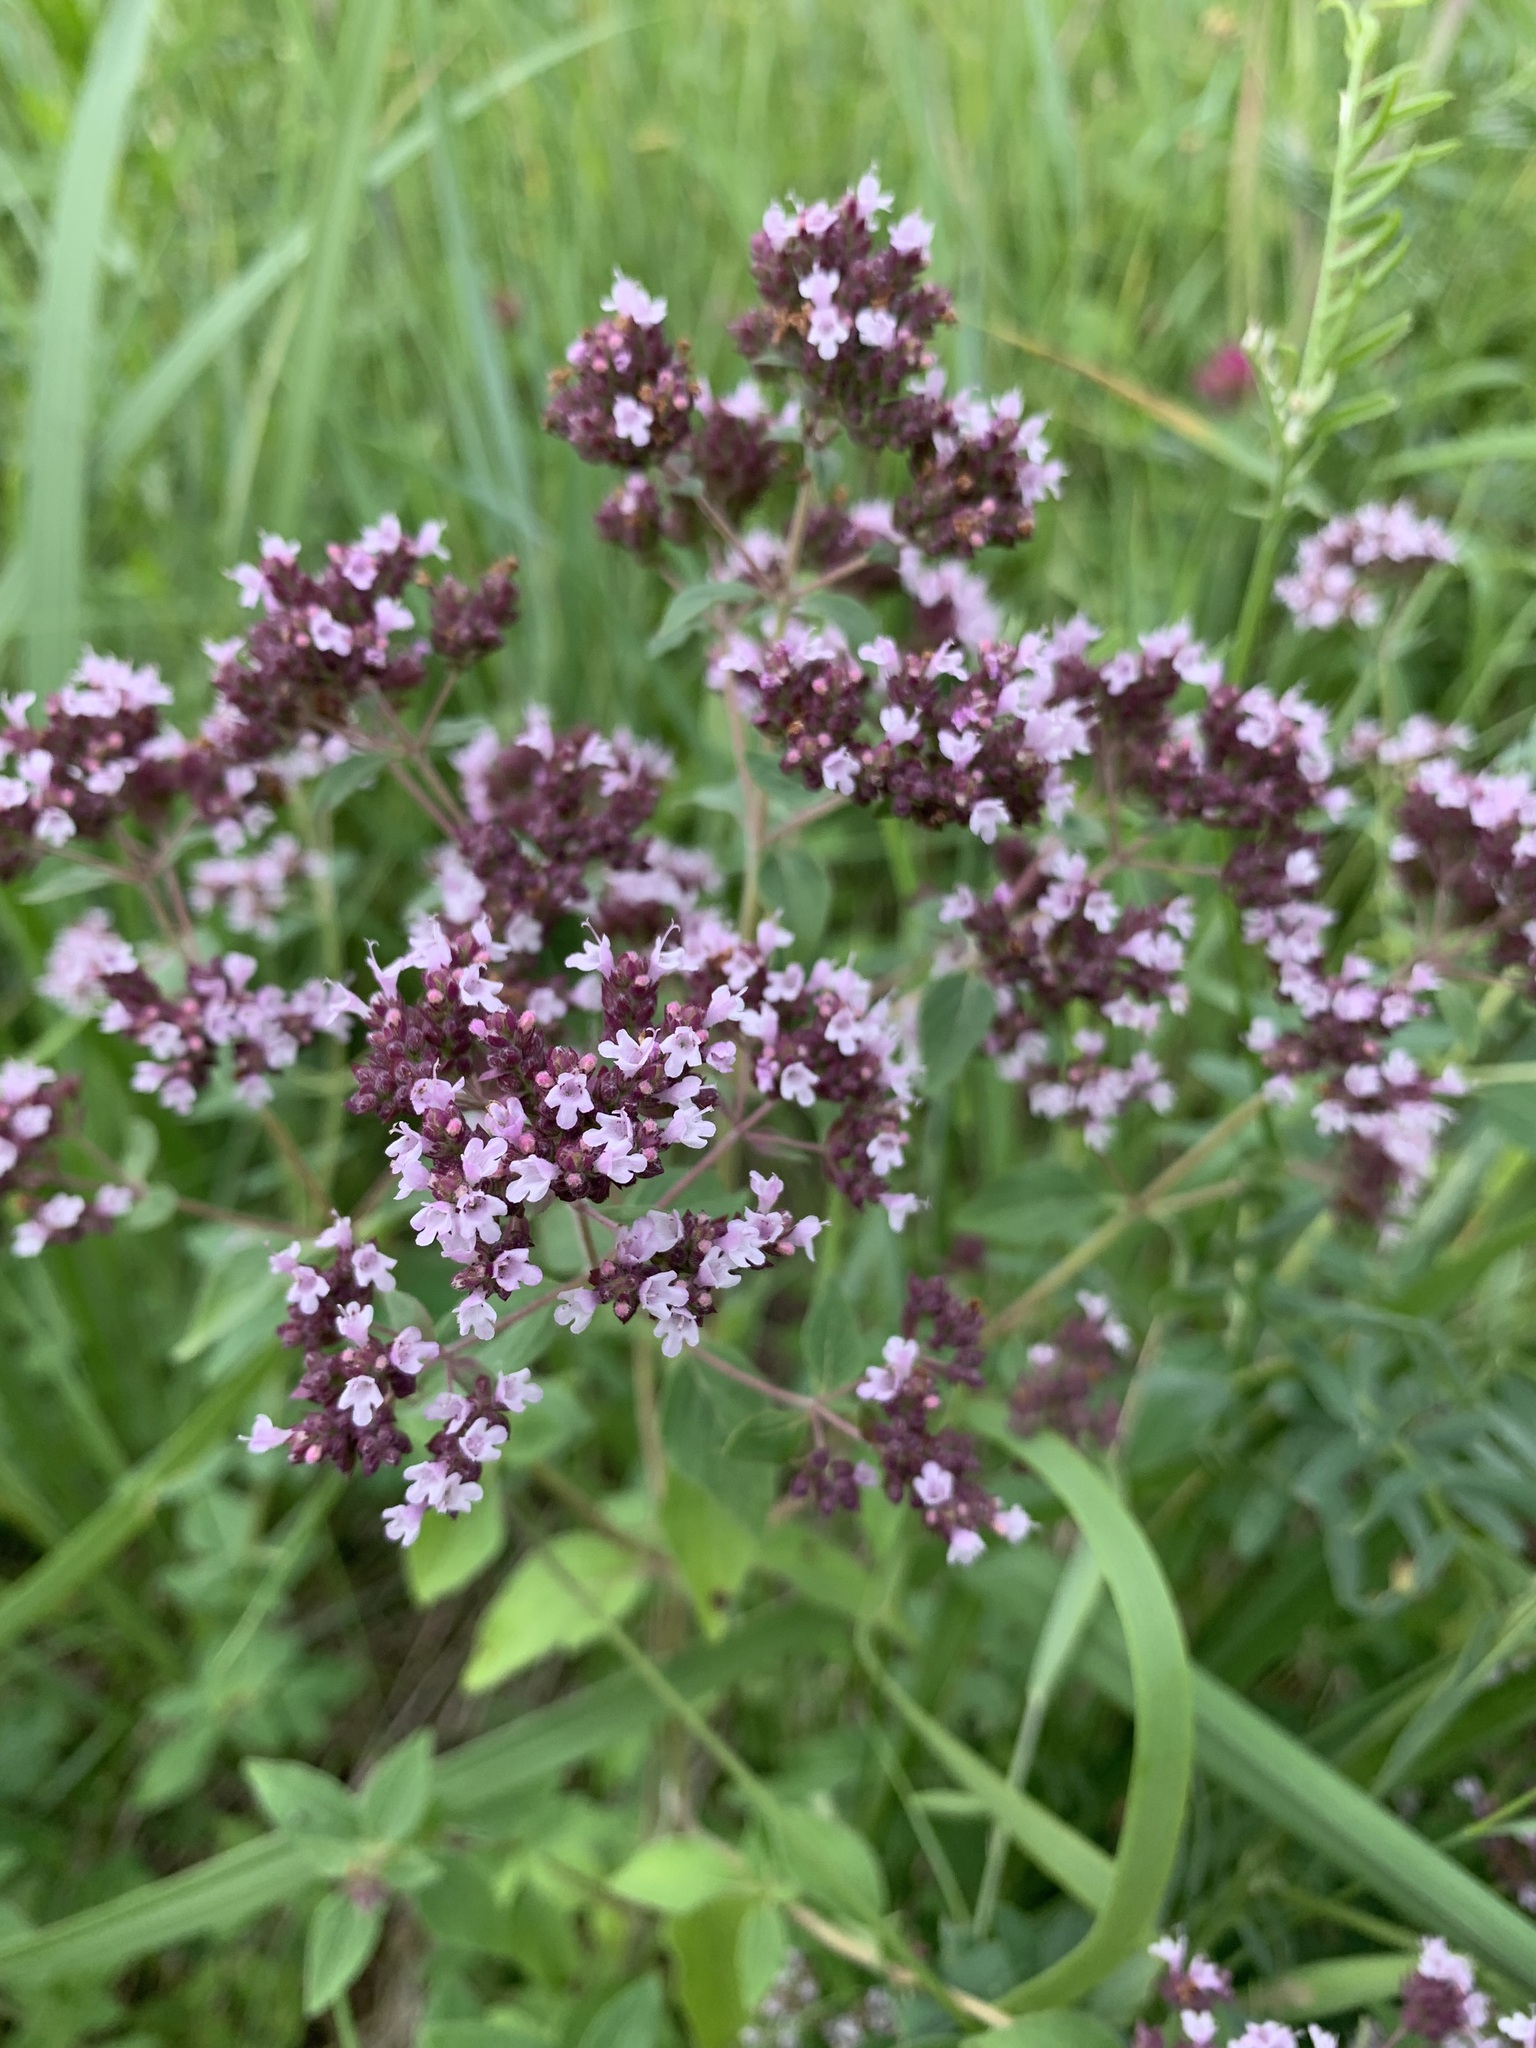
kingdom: Plantae
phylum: Tracheophyta
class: Magnoliopsida
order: Lamiales
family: Lamiaceae
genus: Origanum
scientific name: Origanum vulgare
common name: Wild marjoram
